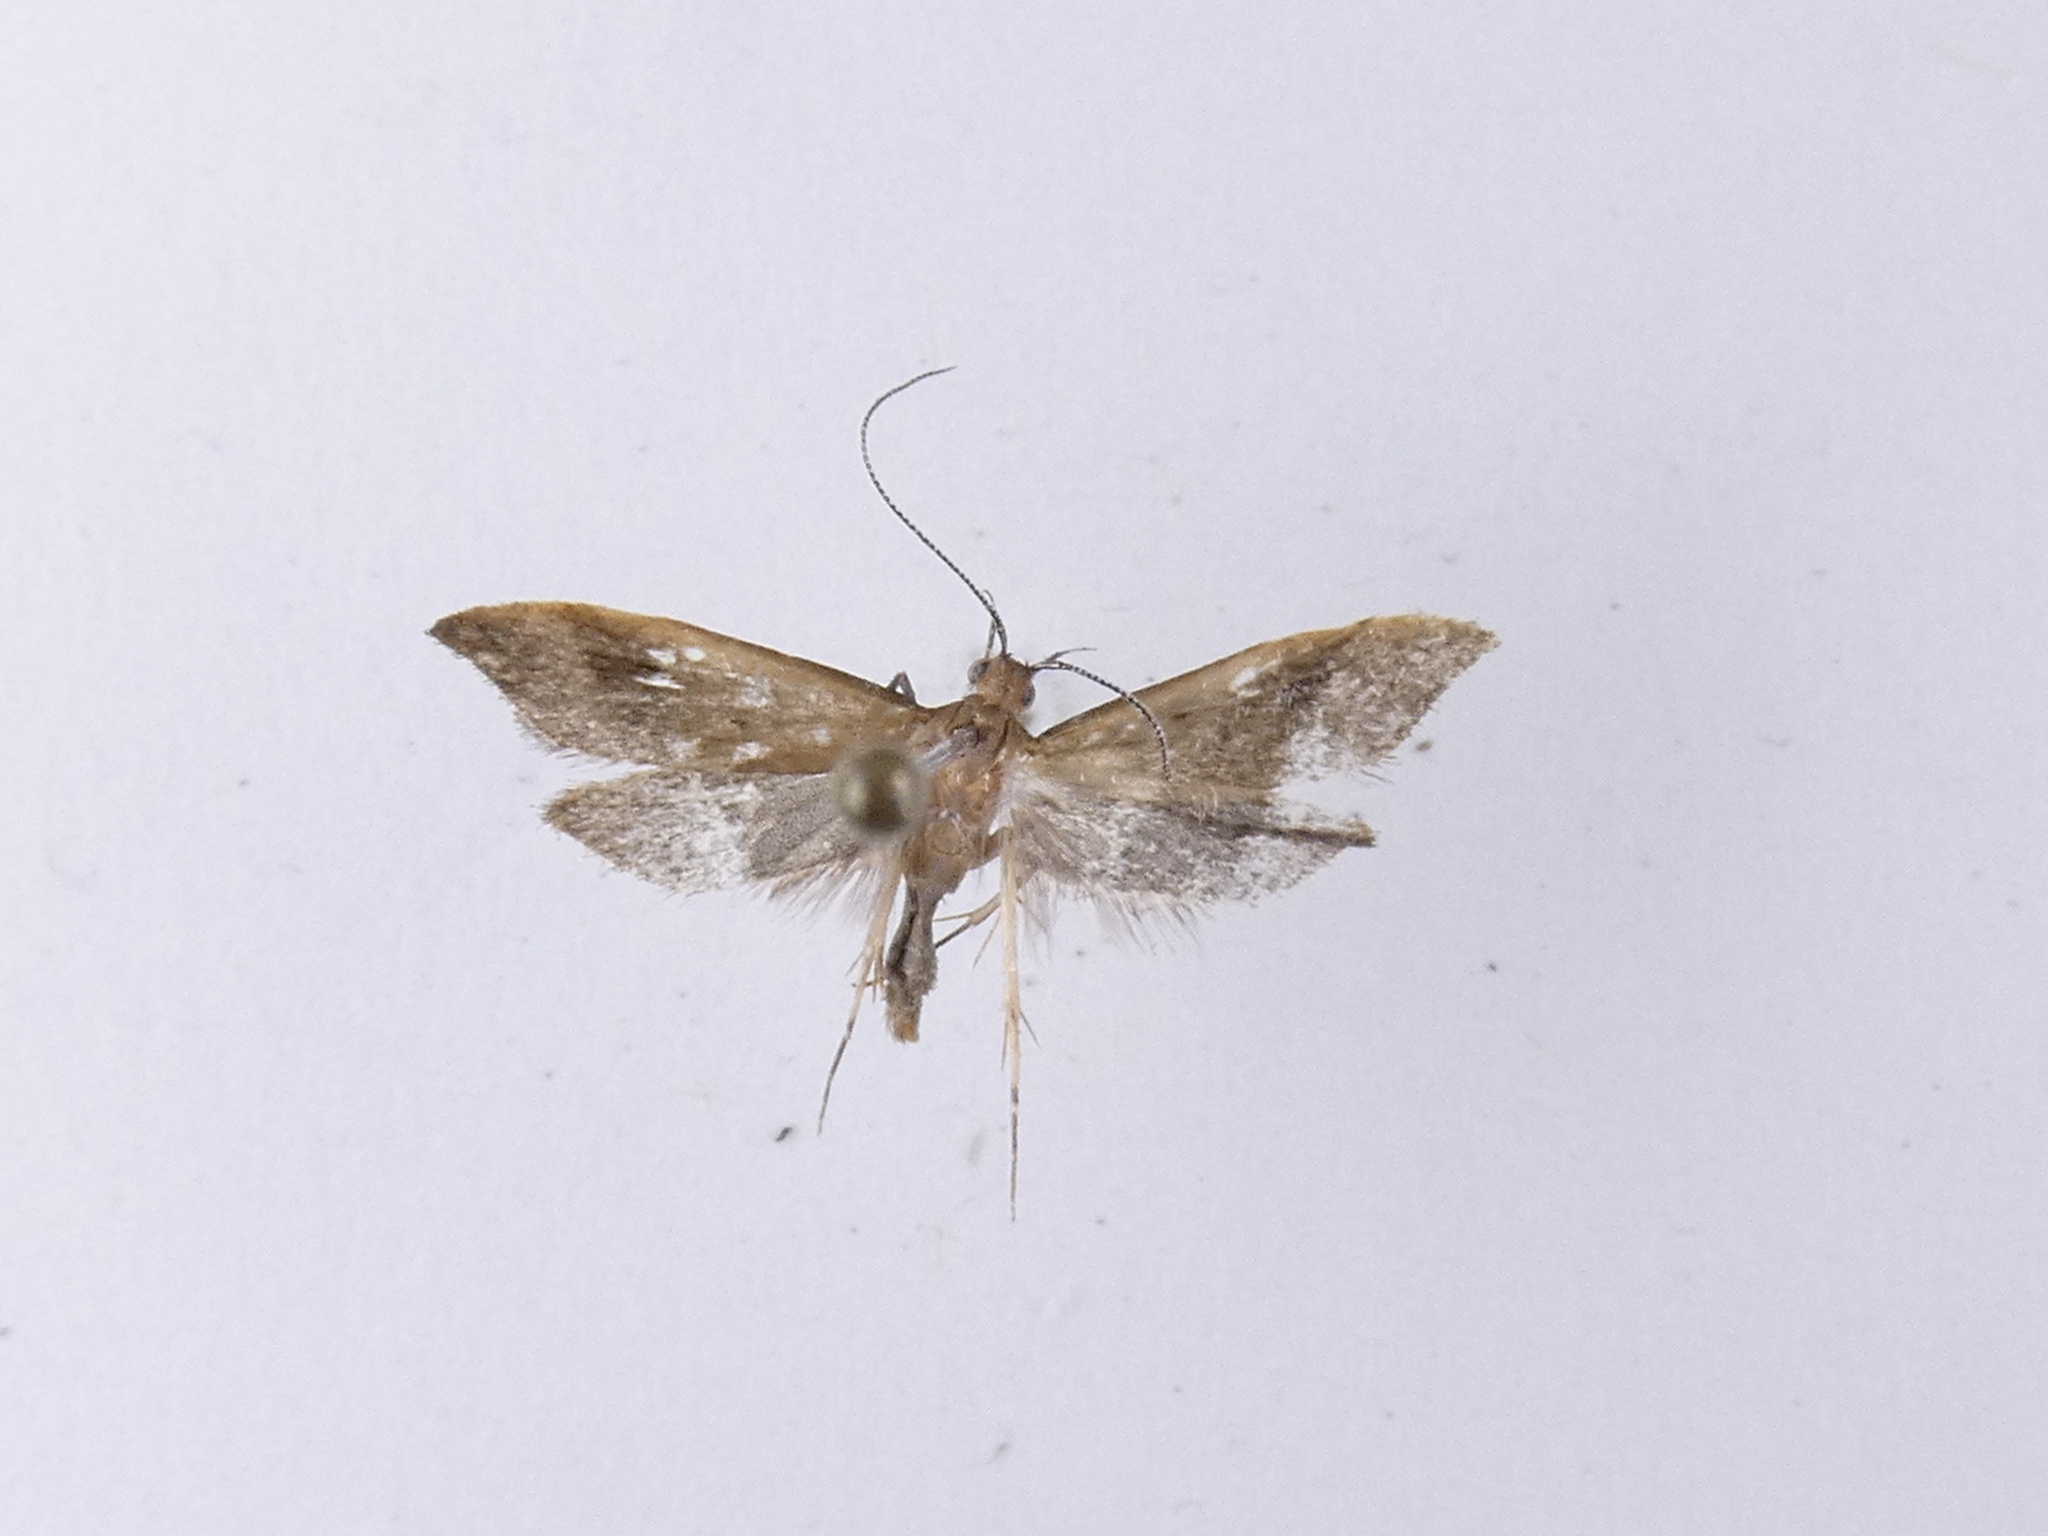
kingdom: Animalia
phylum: Arthropoda
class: Insecta
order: Lepidoptera
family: Oecophoridae
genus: Gymnobathra
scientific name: Gymnobathra hyetodes
